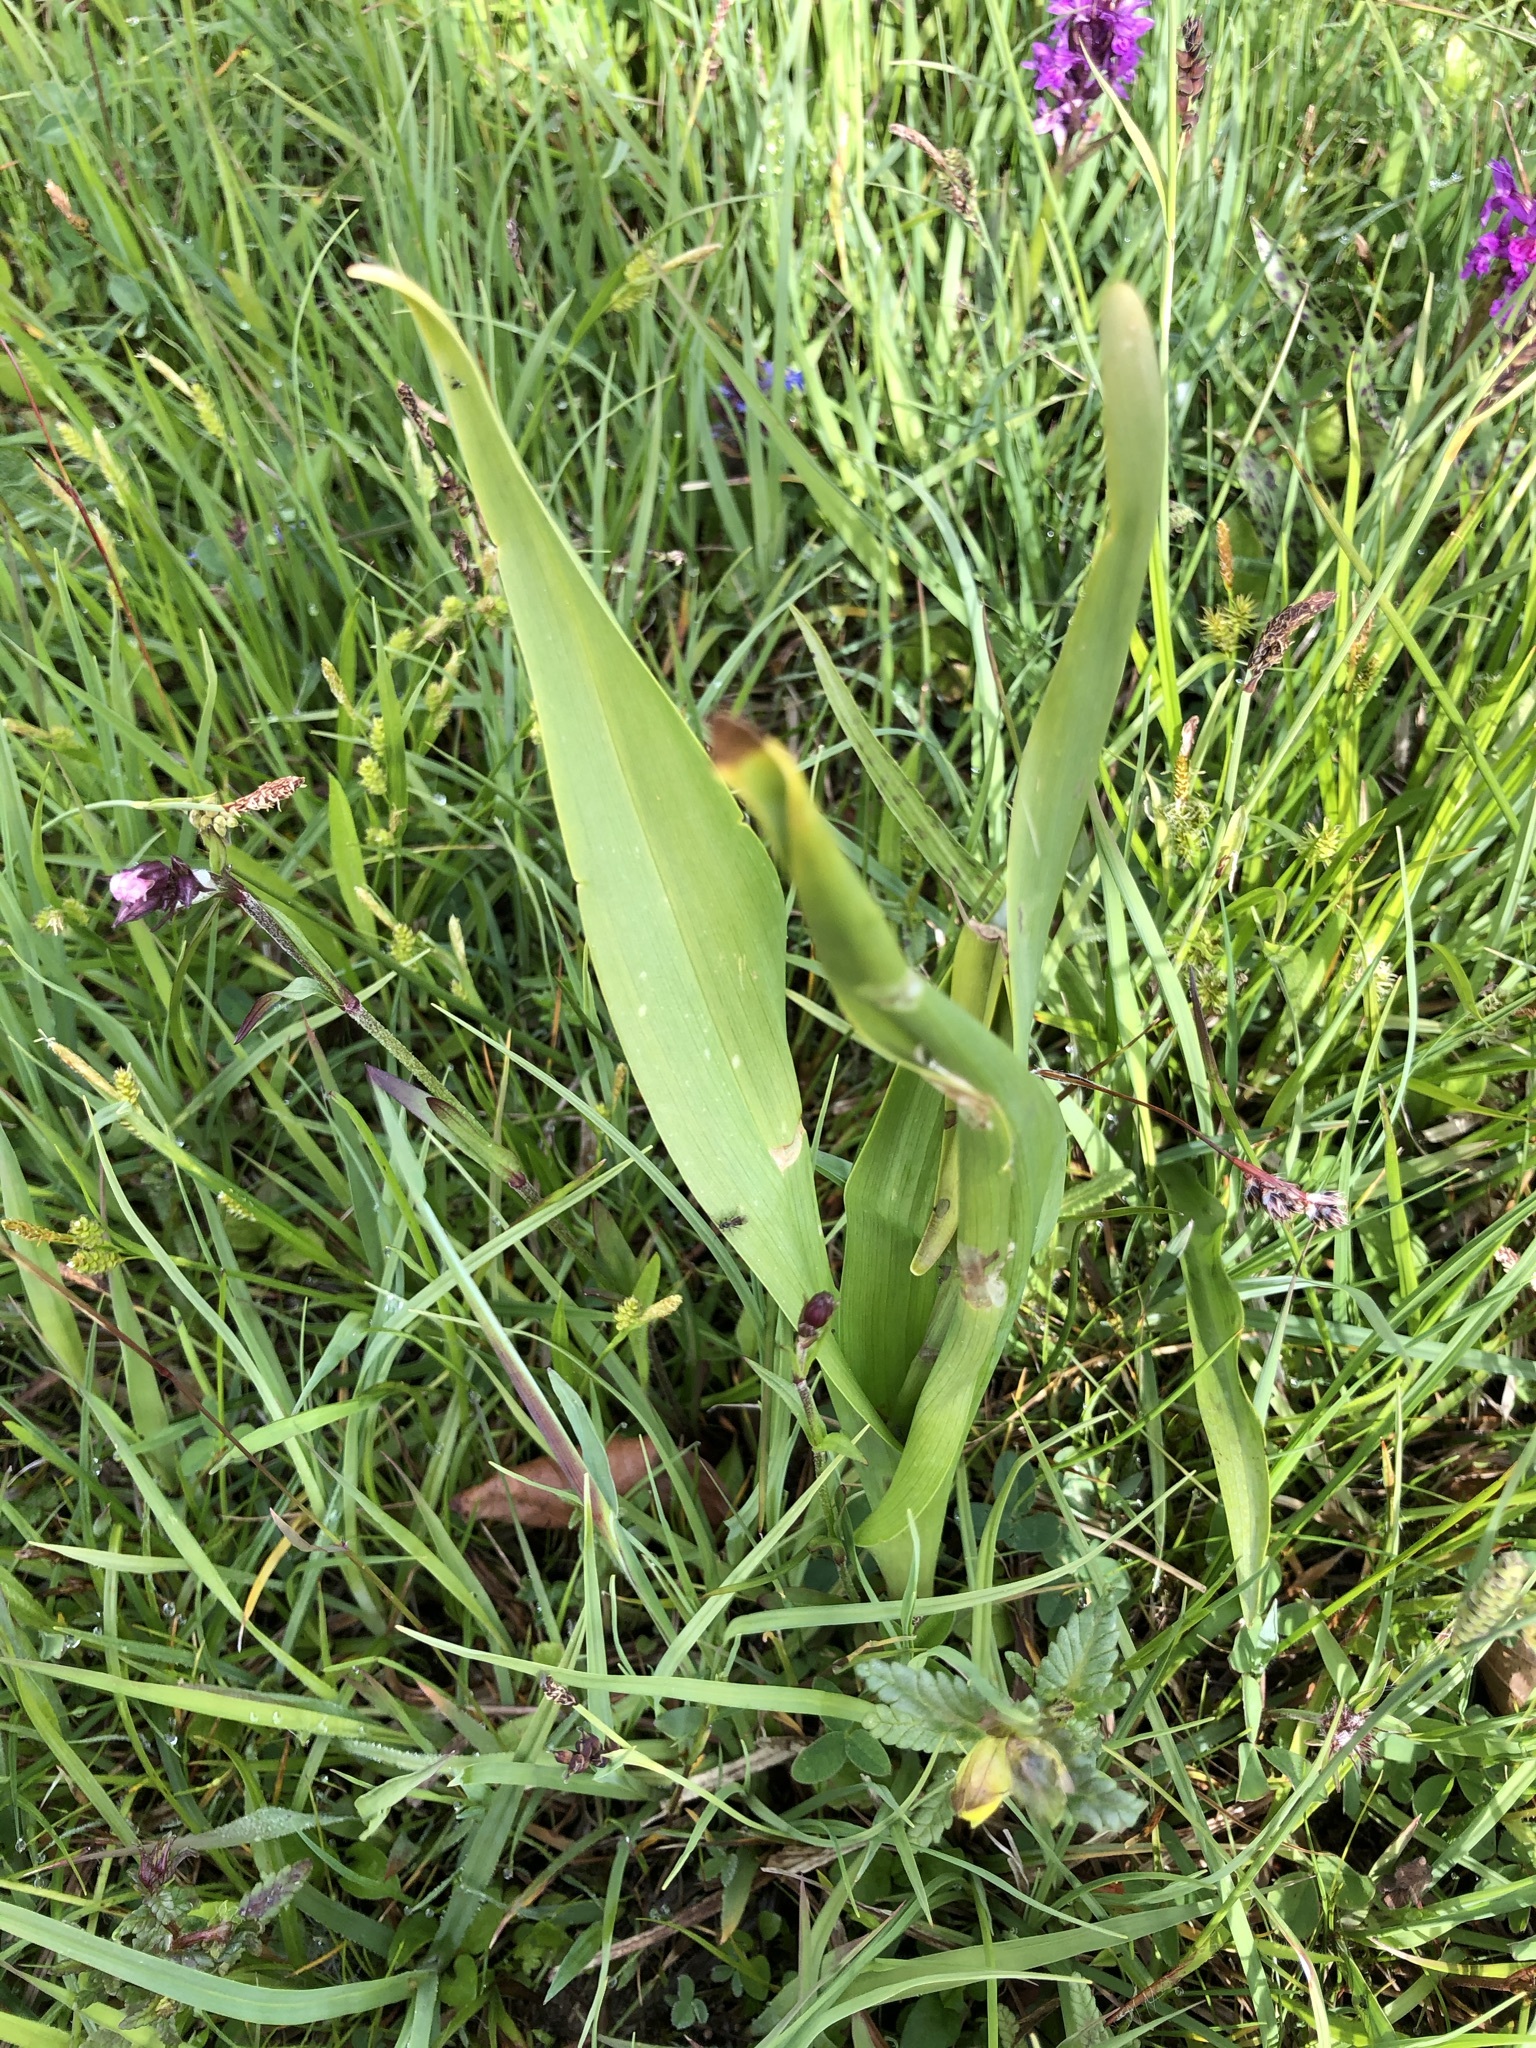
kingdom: Plantae
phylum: Tracheophyta
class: Liliopsida
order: Liliales
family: Colchicaceae
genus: Colchicum
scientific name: Colchicum autumnale
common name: Autumn crocus
